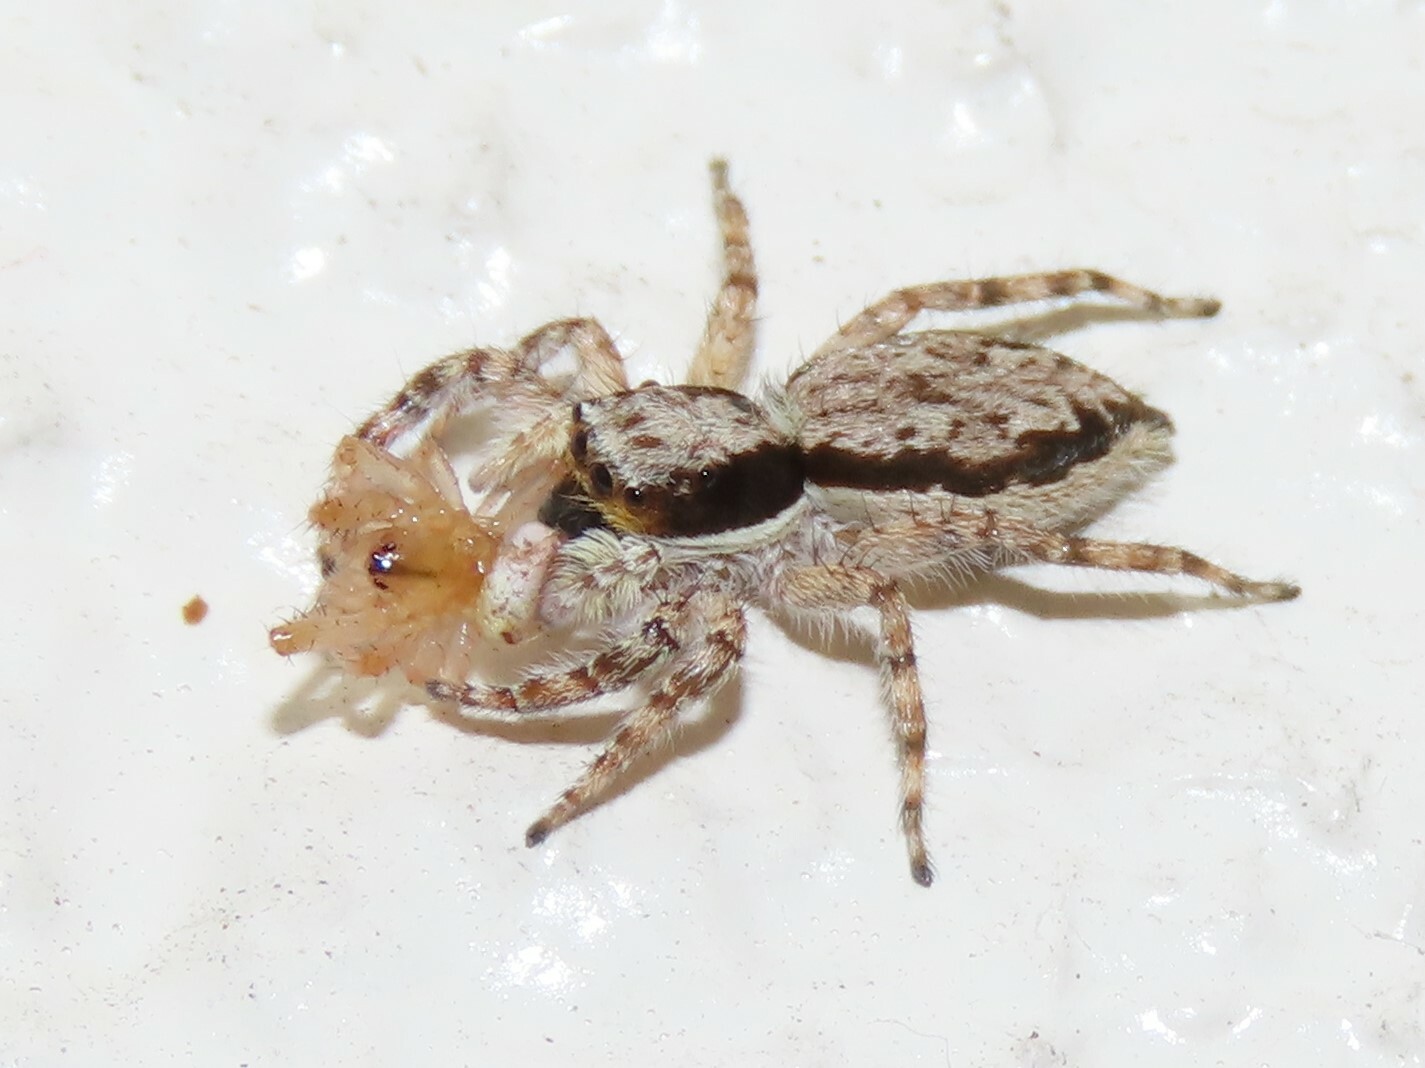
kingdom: Animalia
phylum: Arthropoda
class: Arachnida
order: Araneae
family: Salticidae
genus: Menemerus
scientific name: Menemerus bivittatus
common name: Gray wall jumper
